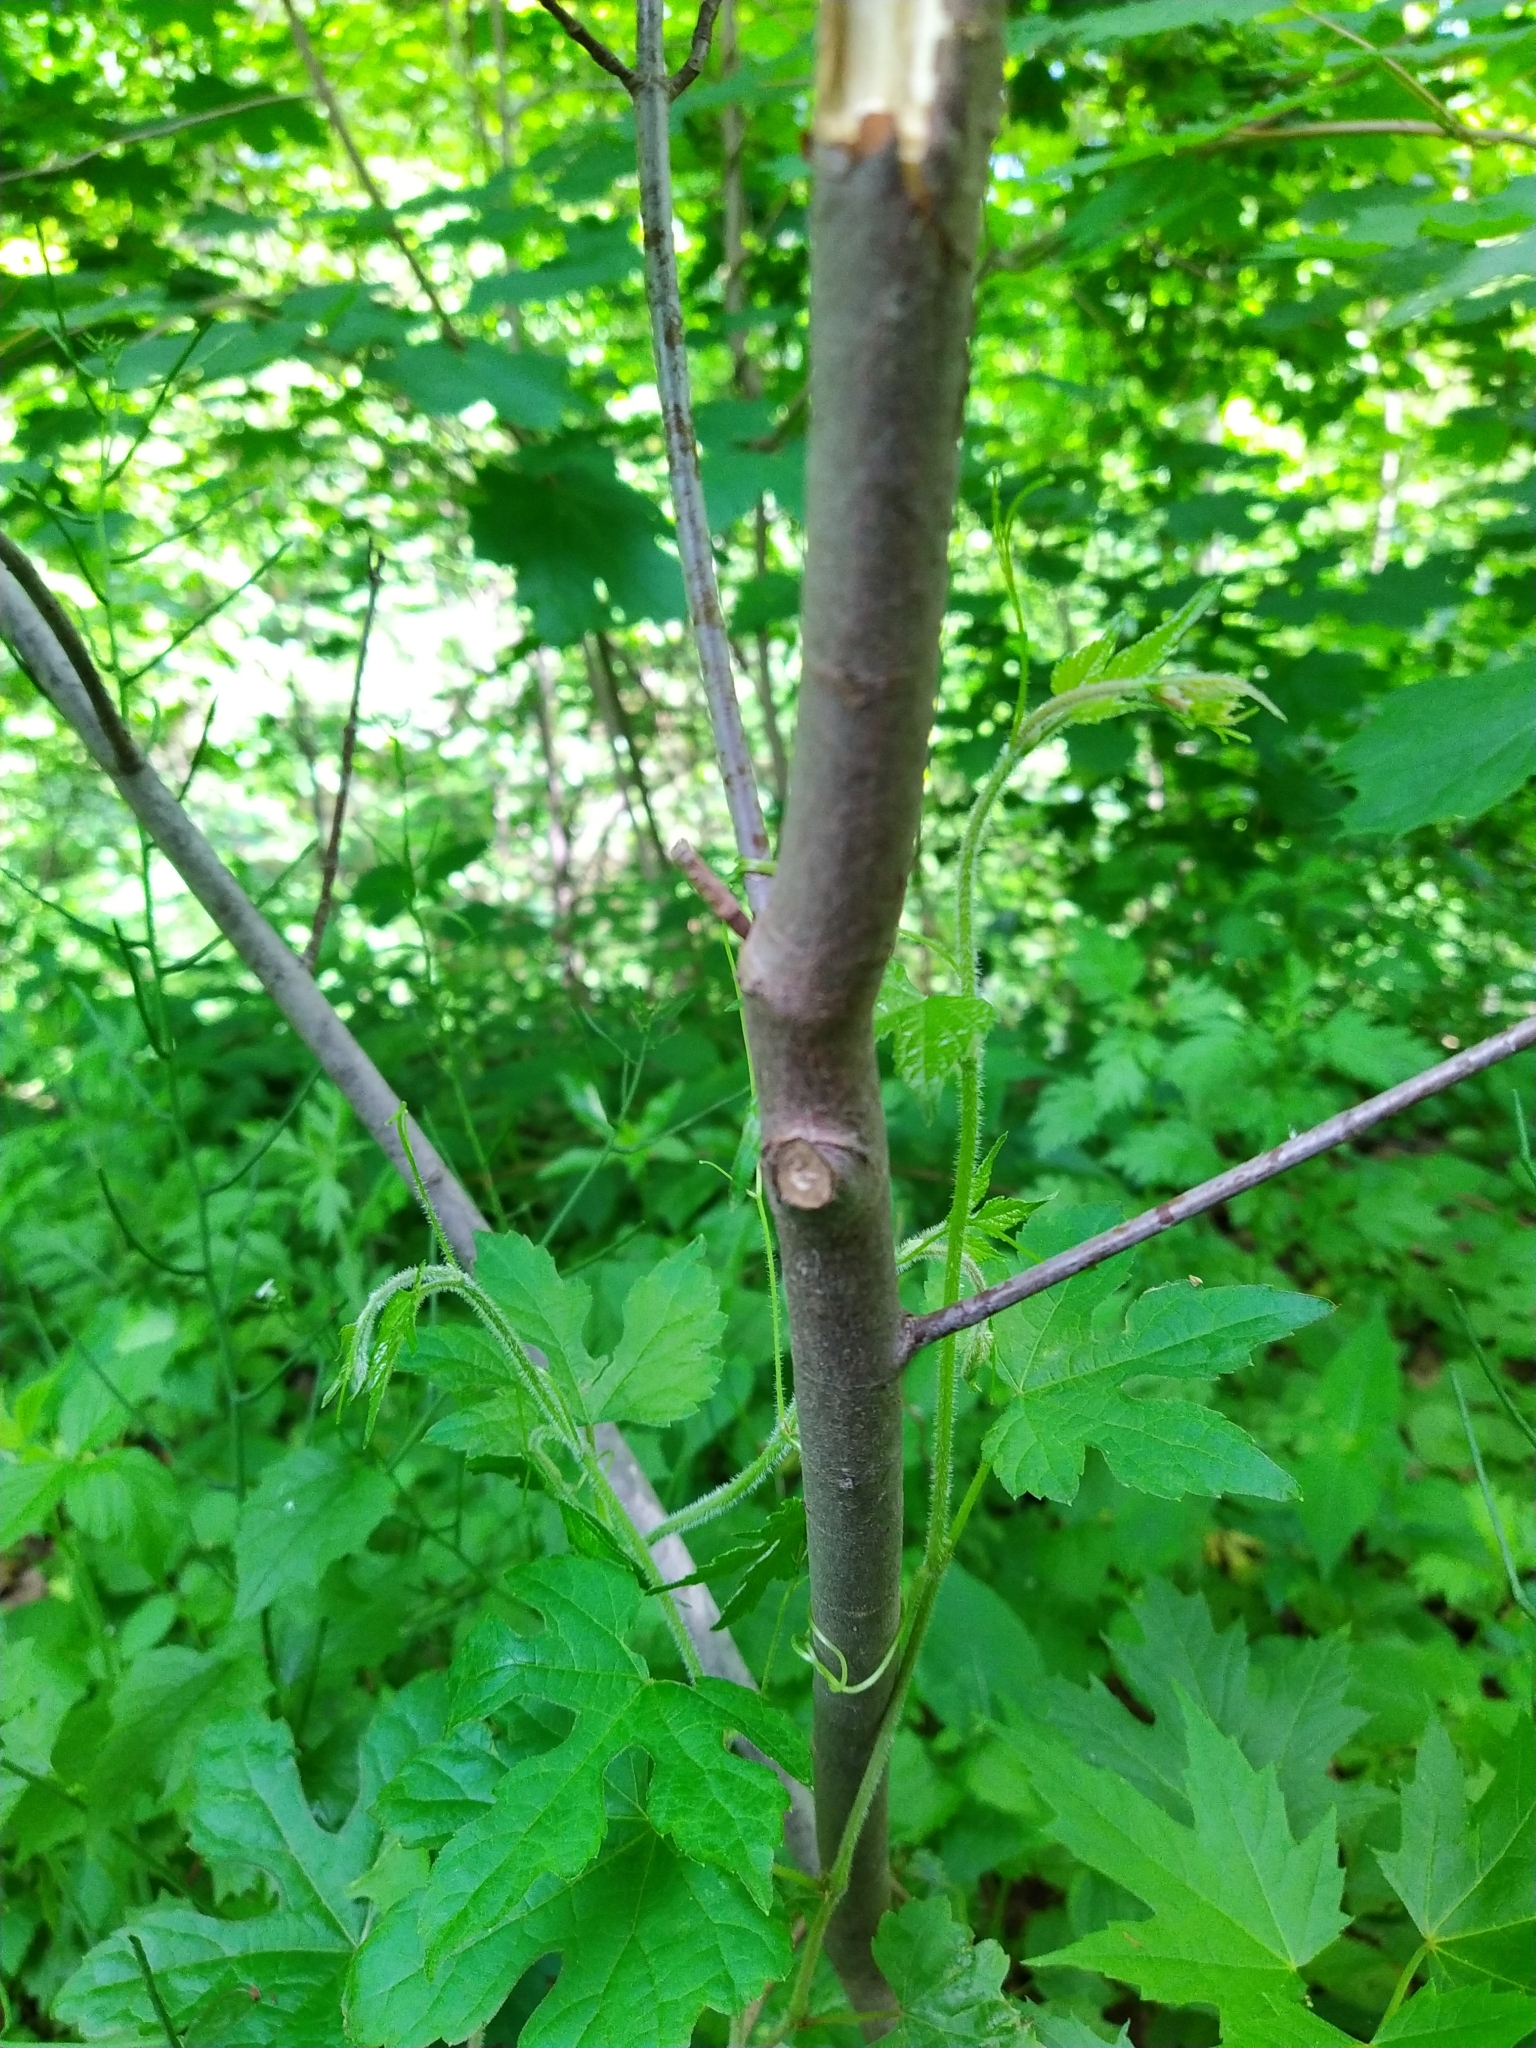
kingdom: Plantae
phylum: Tracheophyta
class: Magnoliopsida
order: Sapindales
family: Sapindaceae
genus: Acer
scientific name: Acer saccharinum
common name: Silver maple
